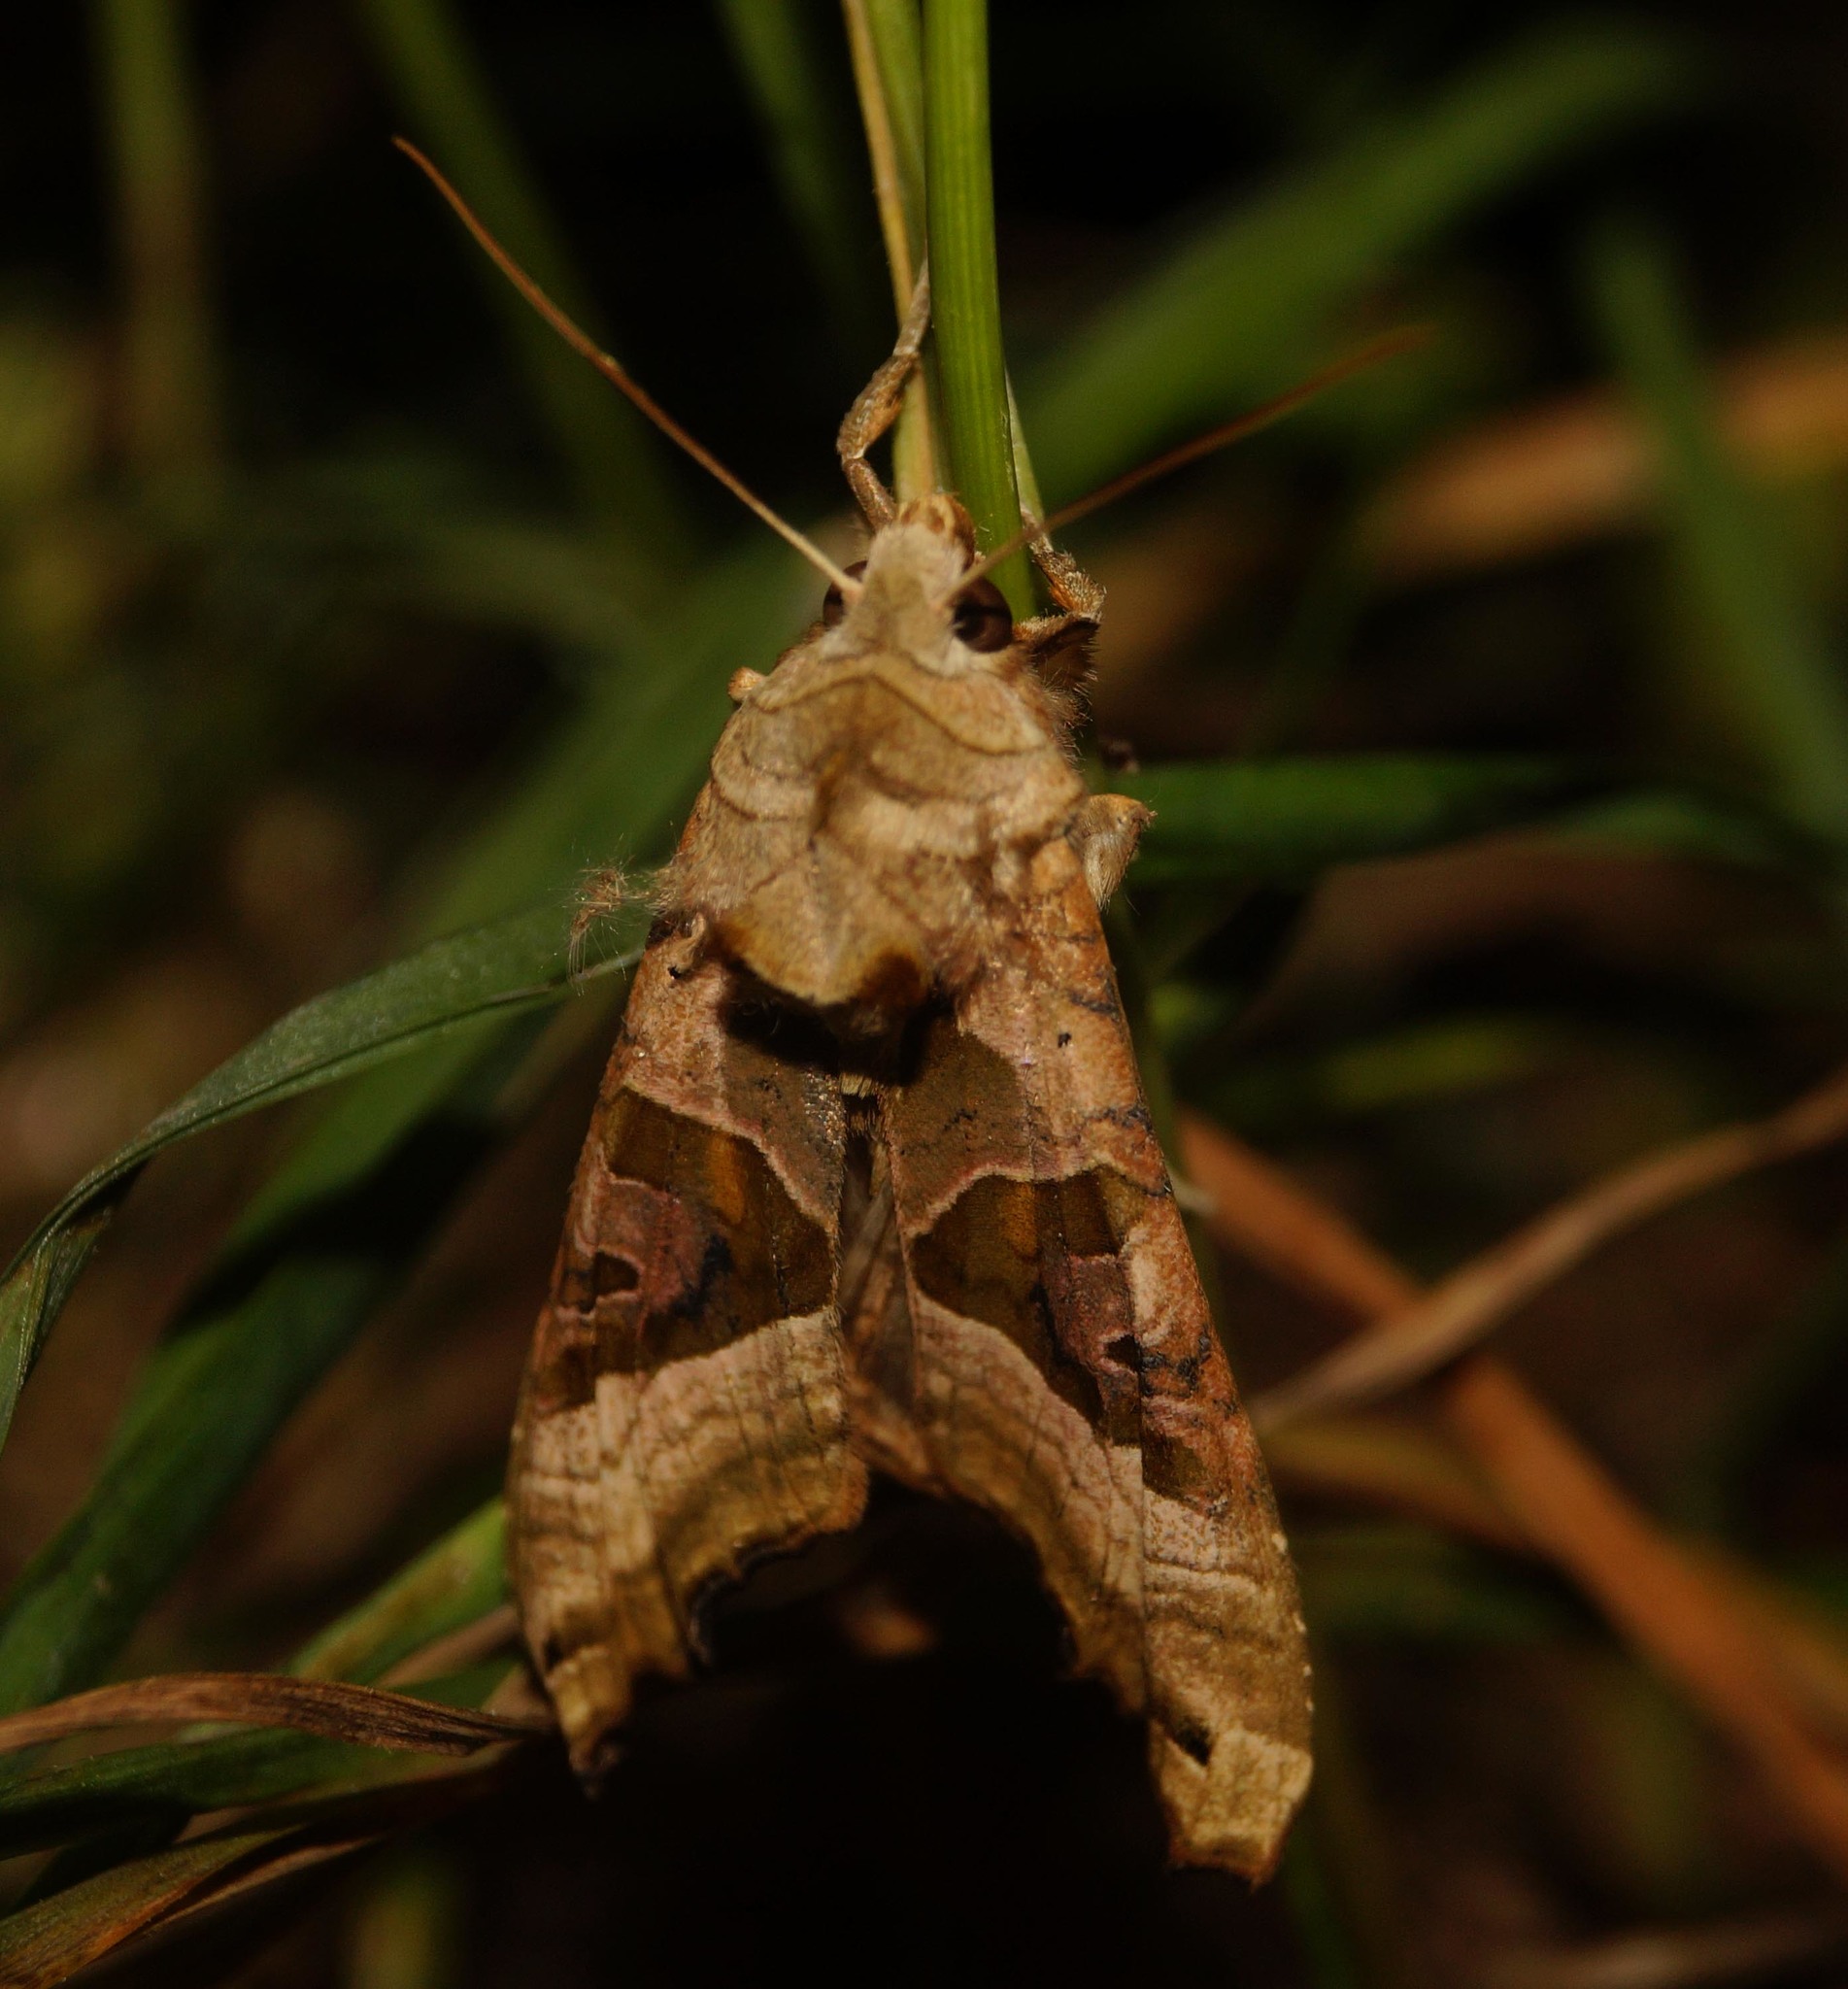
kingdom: Animalia
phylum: Arthropoda
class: Insecta
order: Lepidoptera
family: Noctuidae
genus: Phlogophora
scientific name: Phlogophora meticulosa
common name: Angle shades
